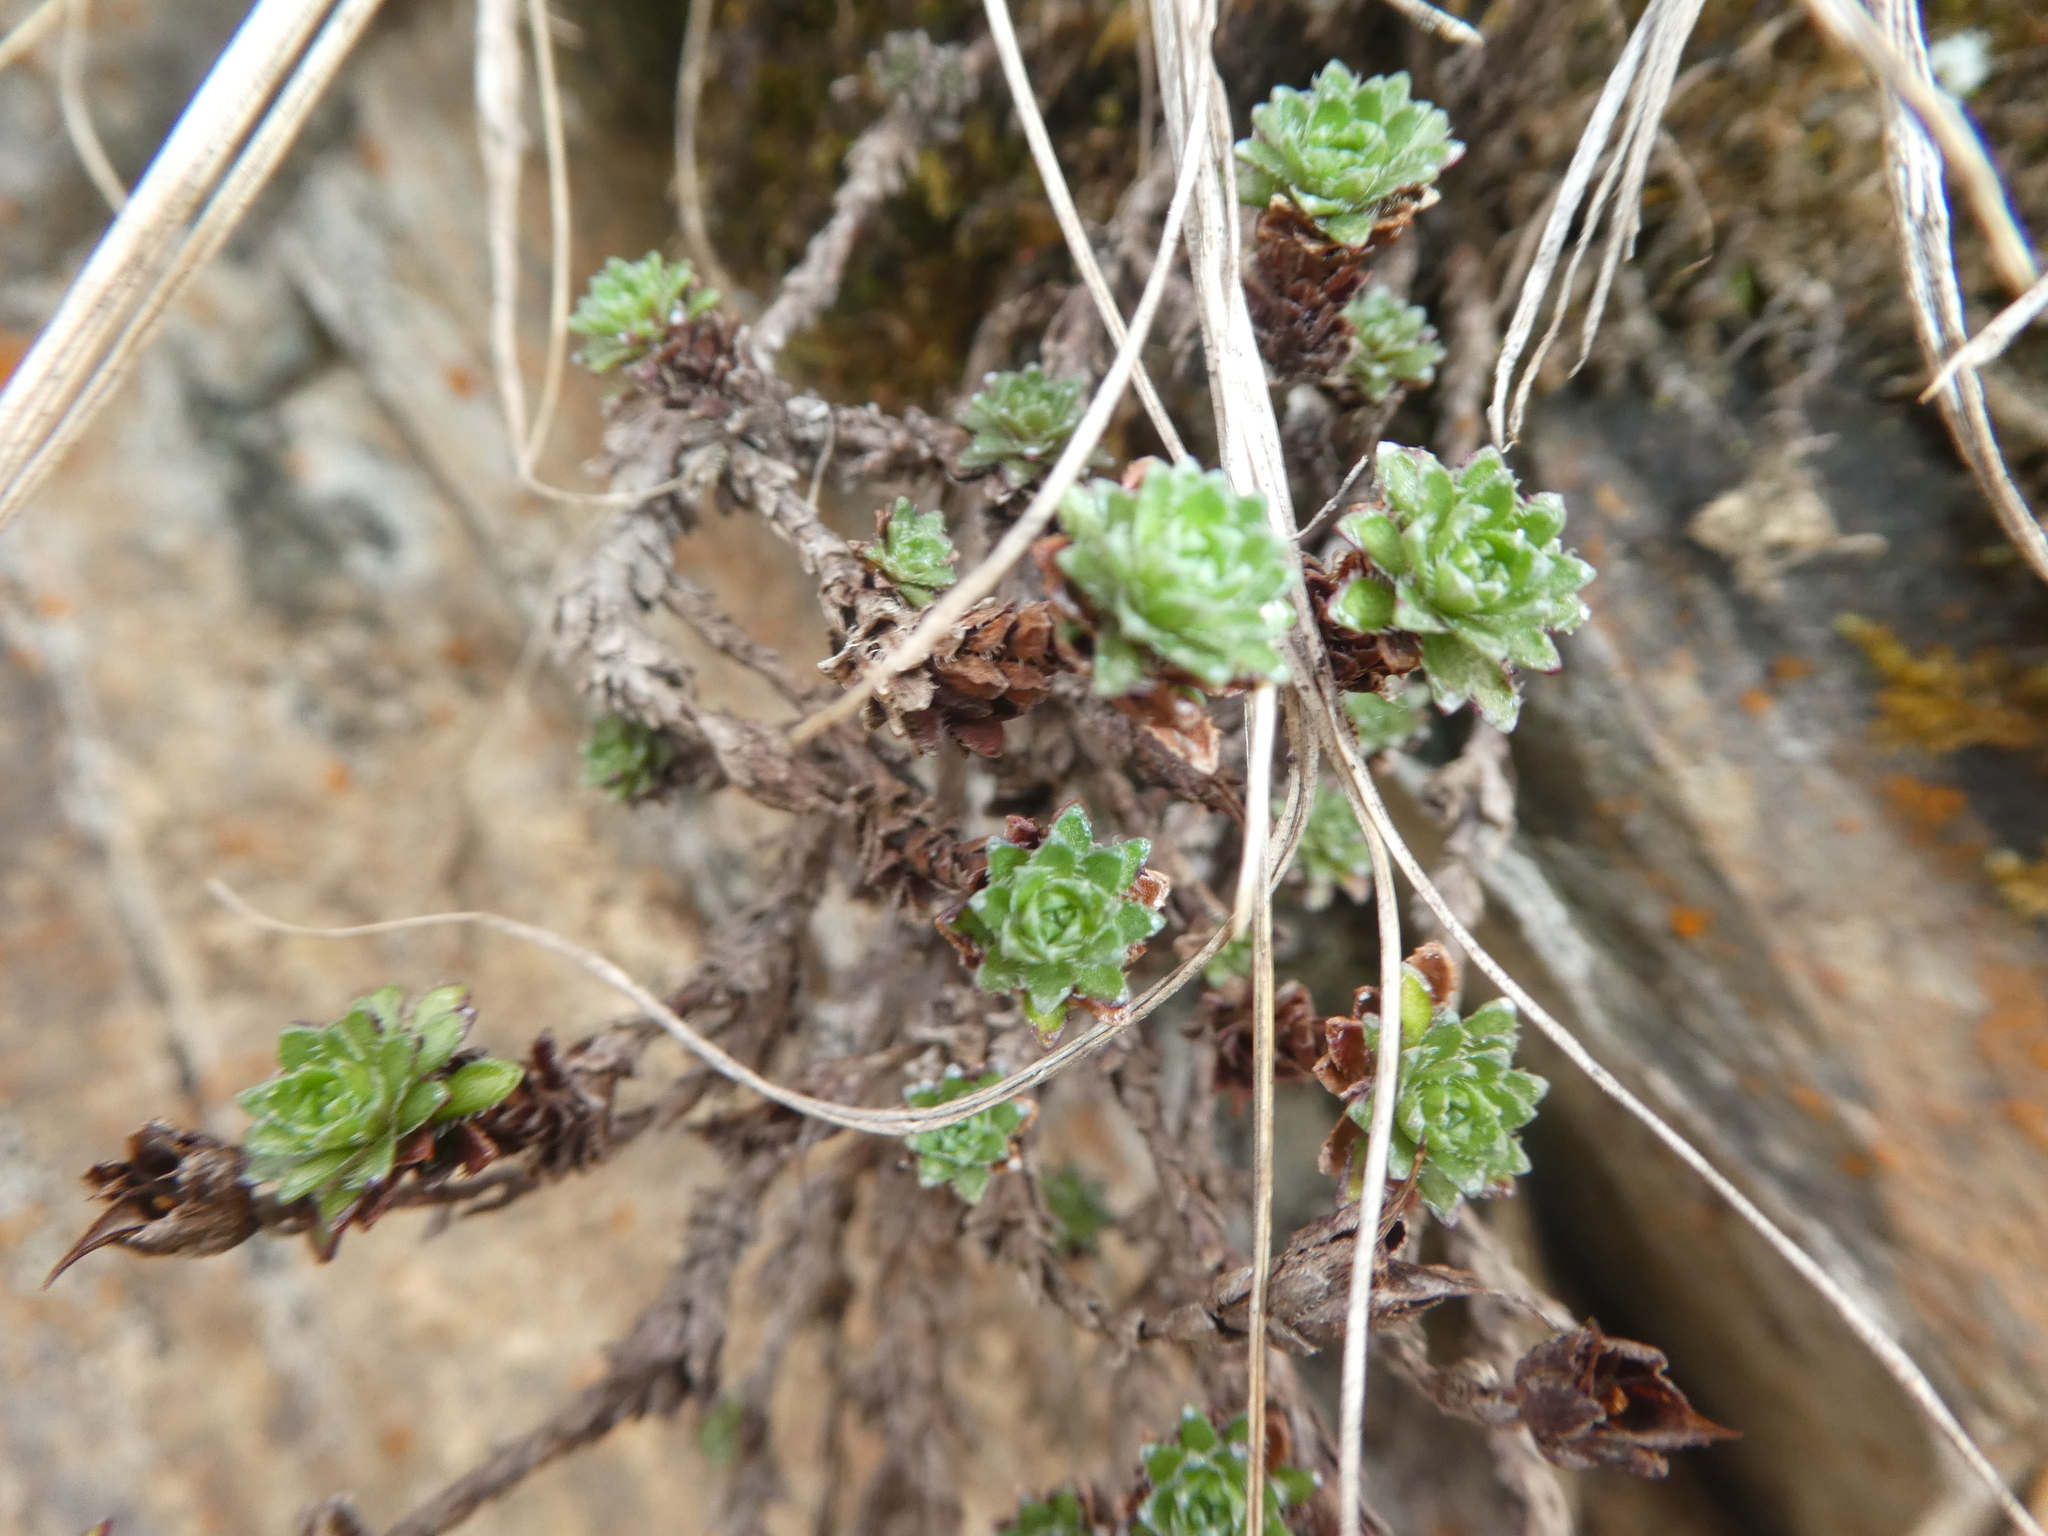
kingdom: Plantae
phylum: Tracheophyta
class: Magnoliopsida
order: Saxifragales
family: Saxifragaceae
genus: Saxifraga
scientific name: Saxifraga oppositifolia
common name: Purple saxifrage
